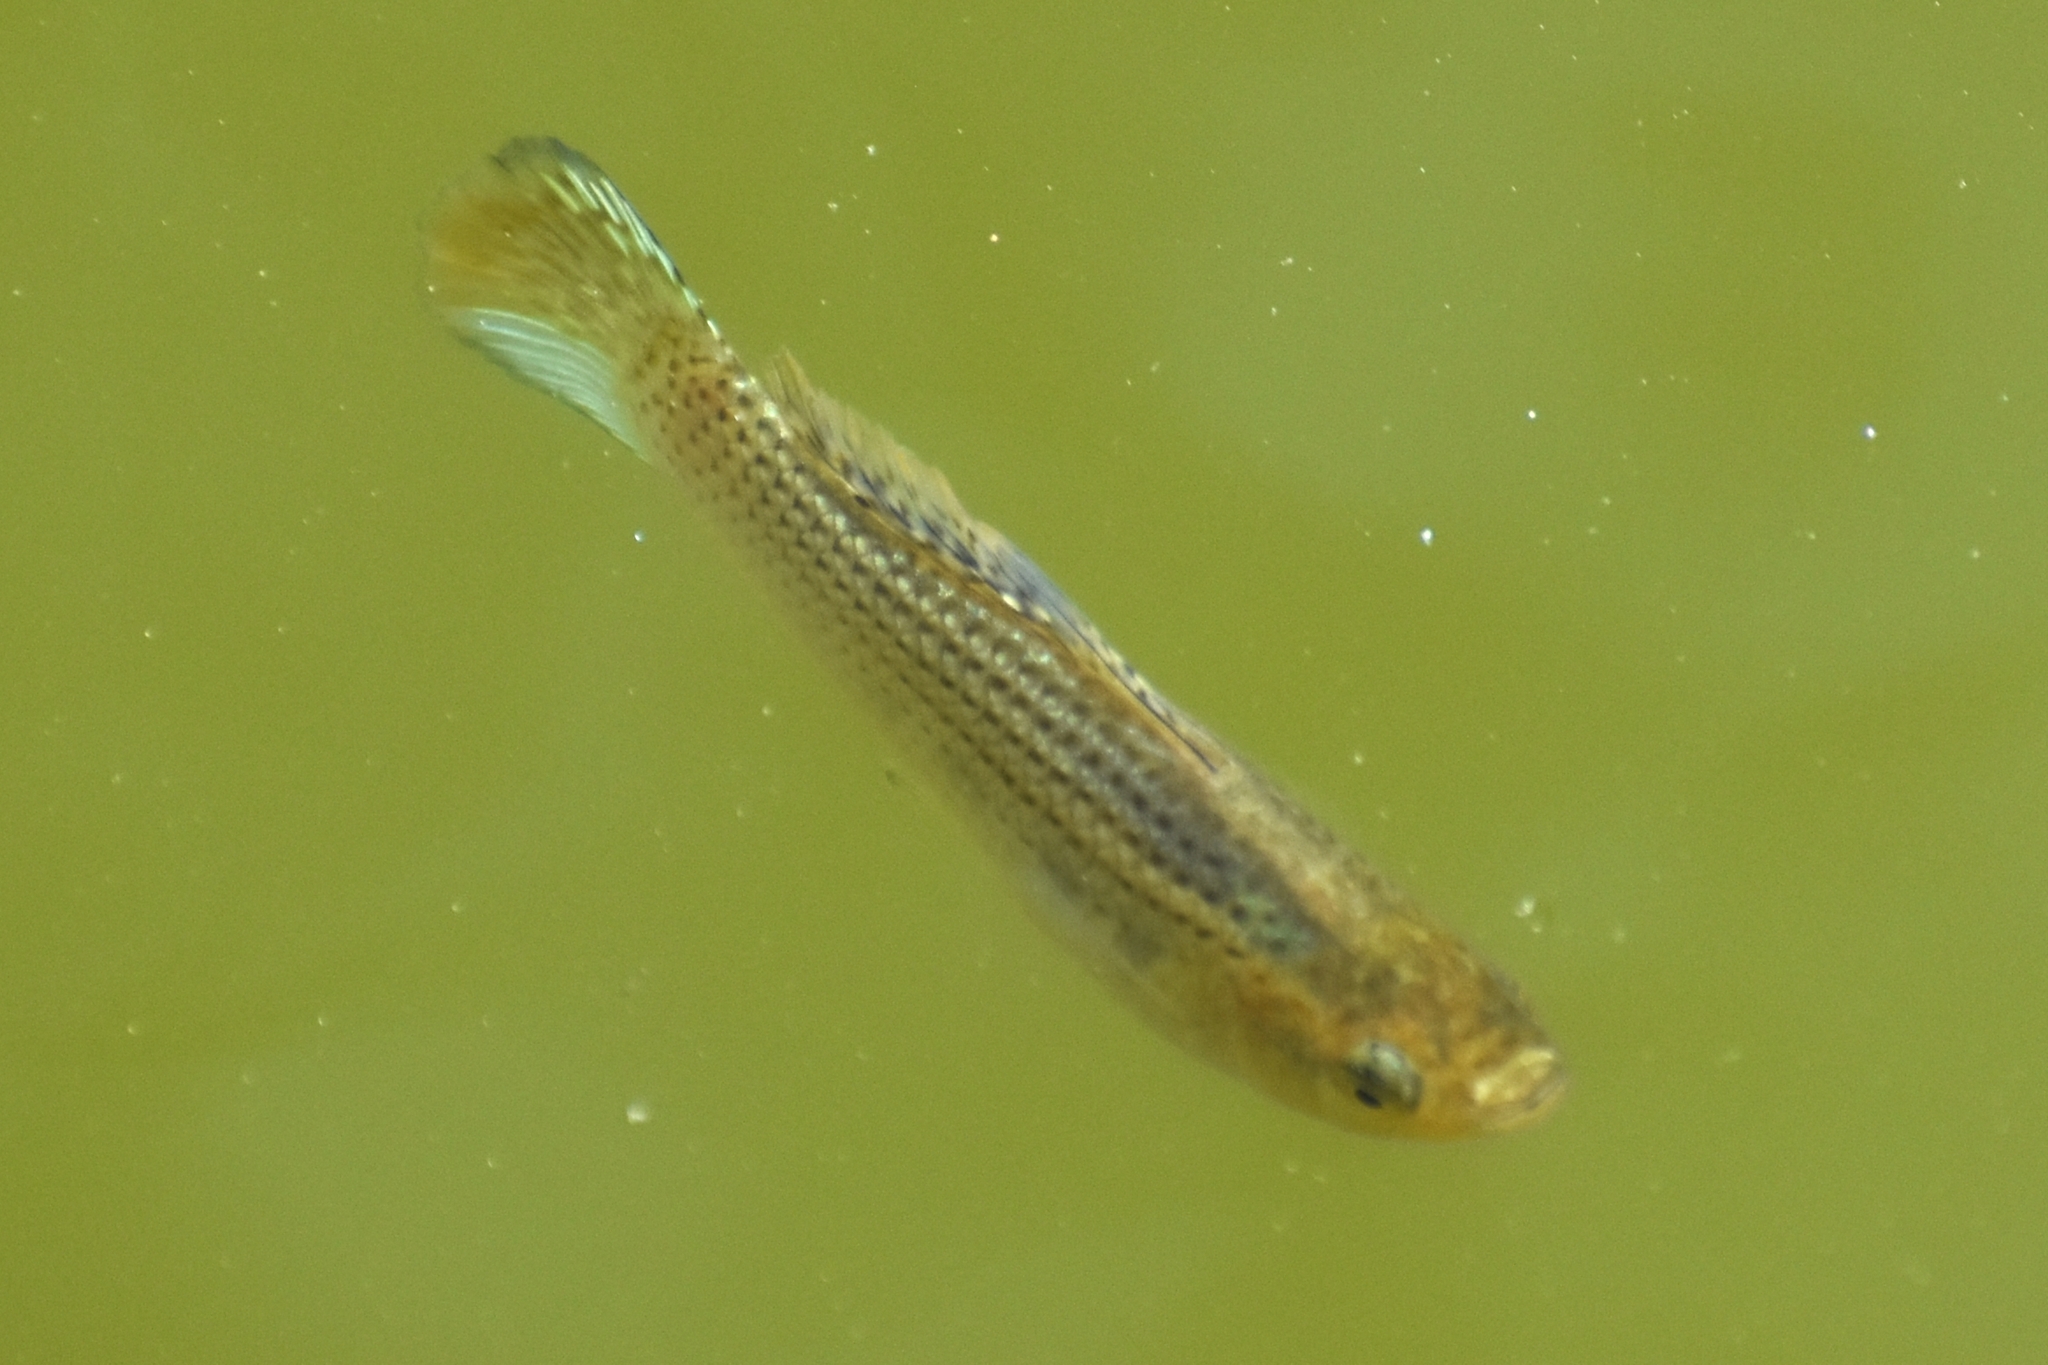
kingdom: Animalia
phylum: Chordata
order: Cyprinodontiformes
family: Poeciliidae
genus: Poecilia
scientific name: Poecilia latipinna
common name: Sailfin molly
